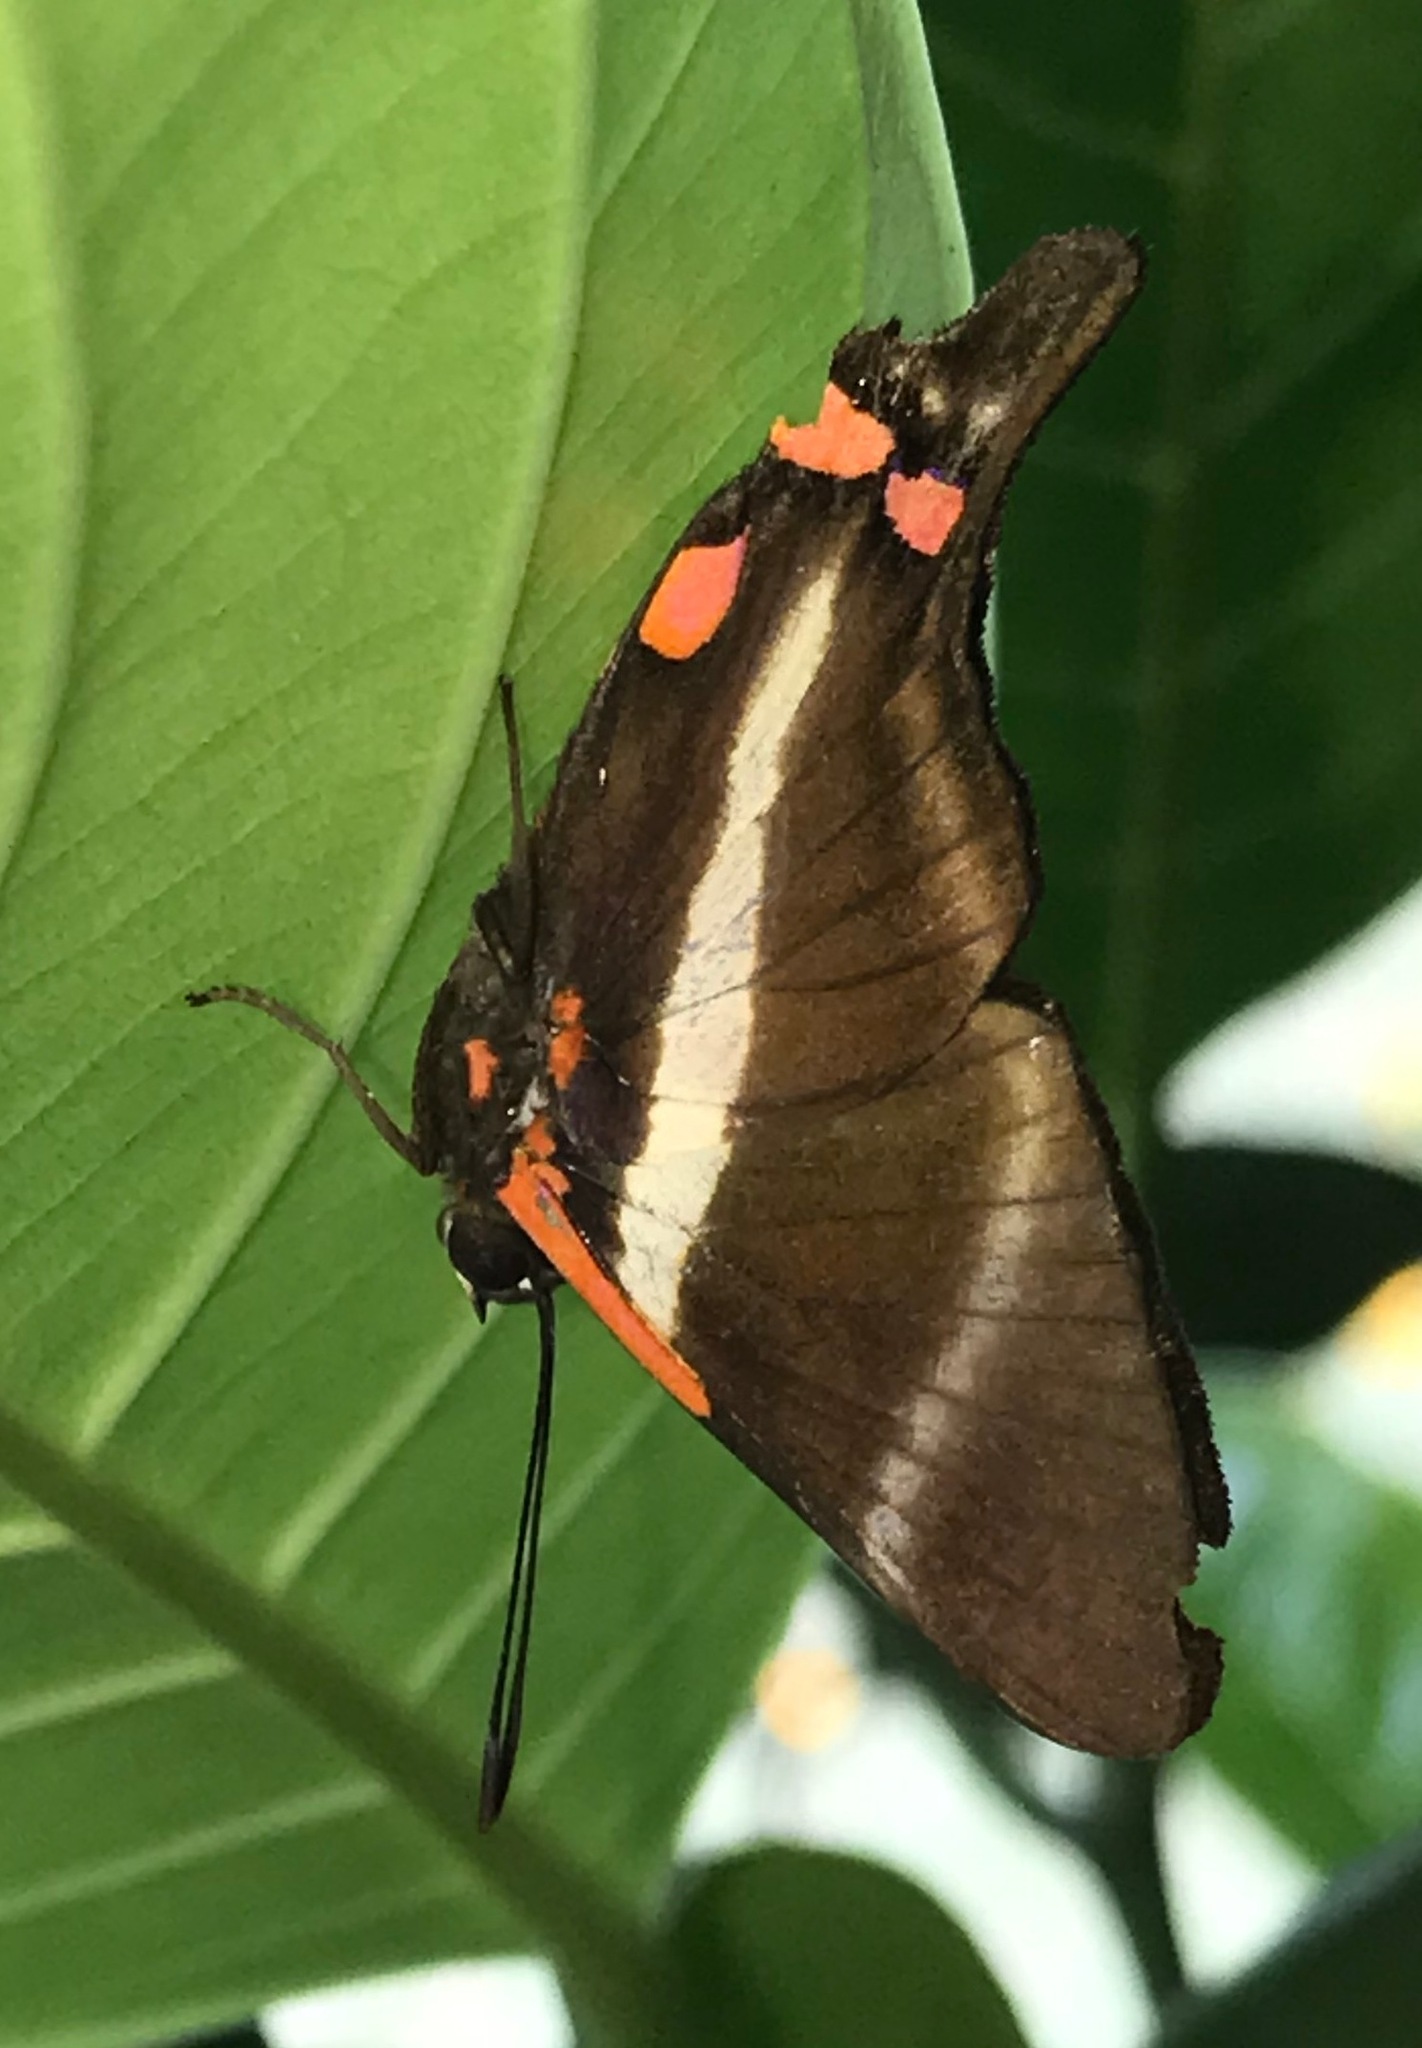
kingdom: Animalia
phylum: Arthropoda
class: Insecta
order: Lepidoptera
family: Riodinidae
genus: Rhetus
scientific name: Rhetus periander
